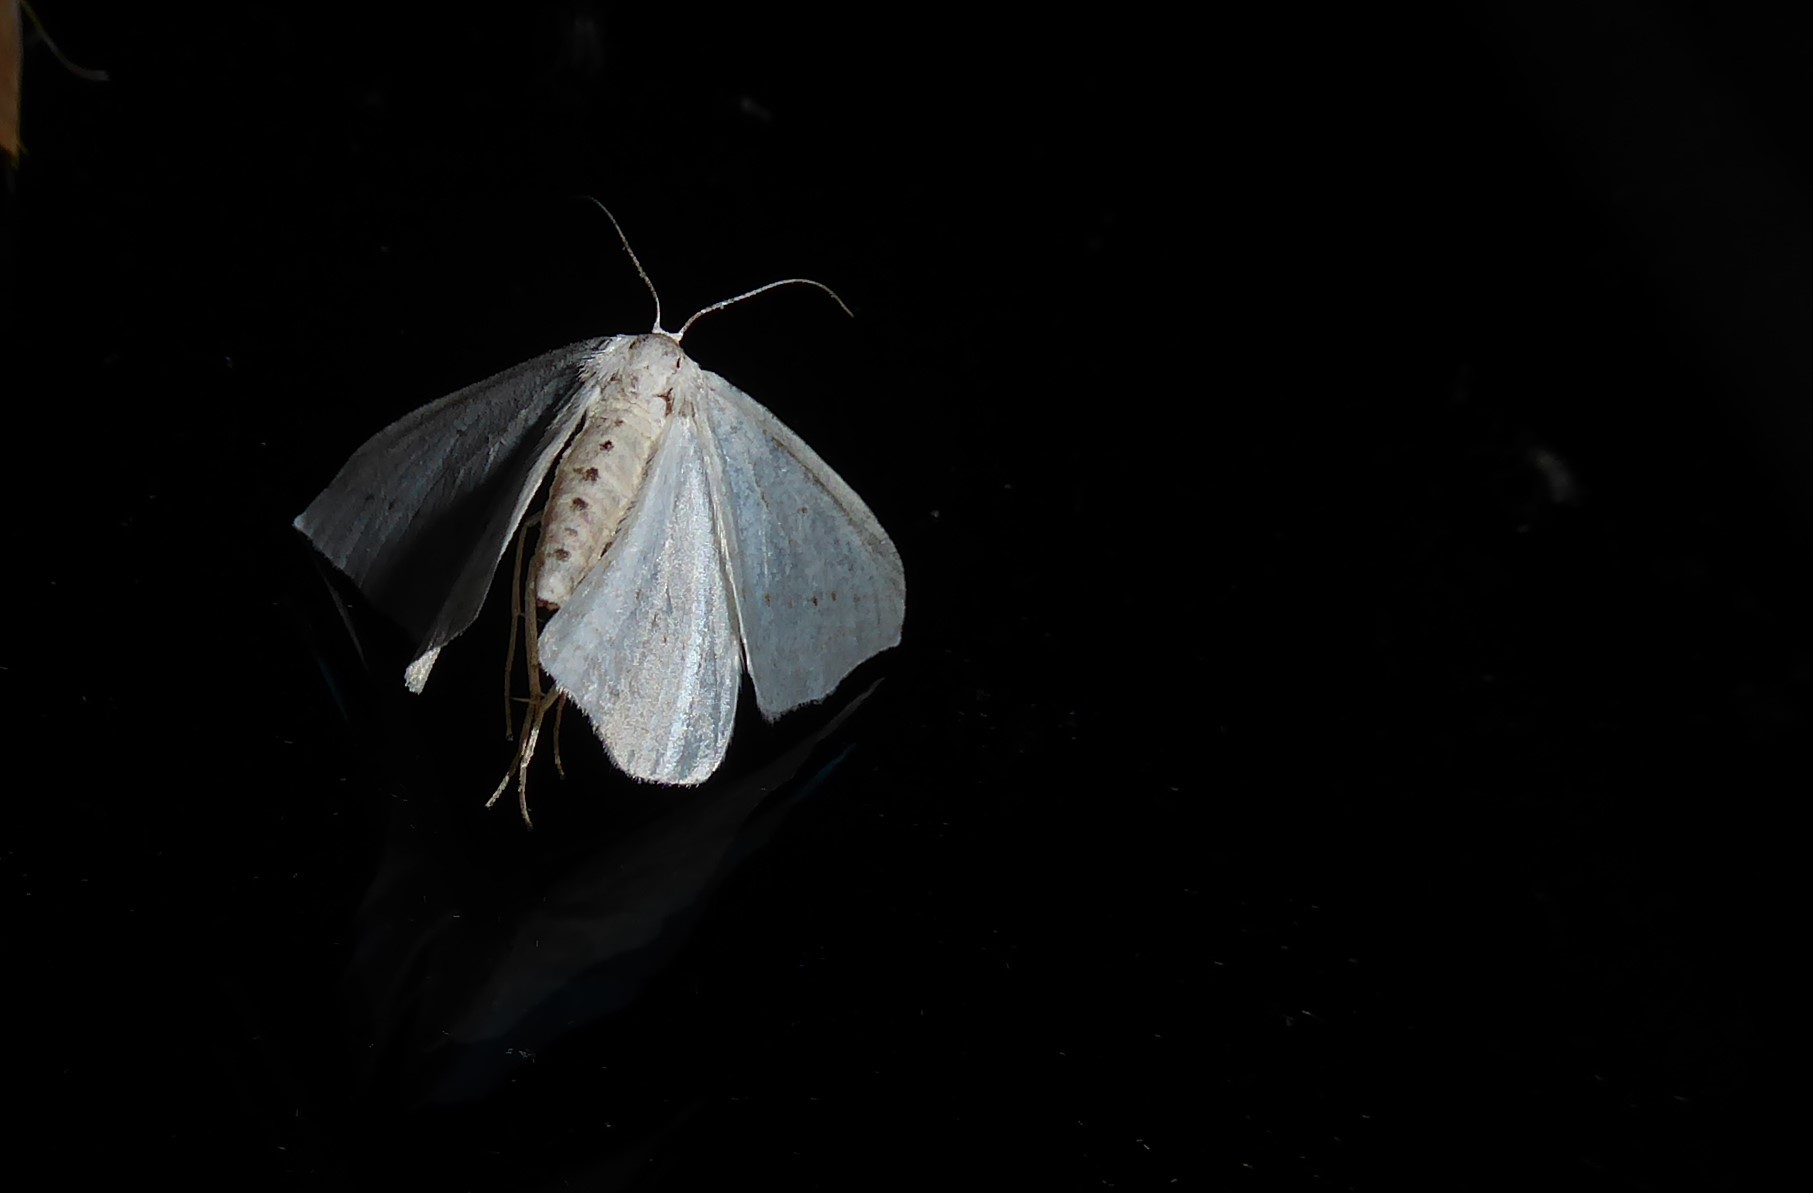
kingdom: Animalia
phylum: Arthropoda
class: Insecta
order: Lepidoptera
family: Geometridae
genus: Orthoclydon
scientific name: Orthoclydon praefectata
